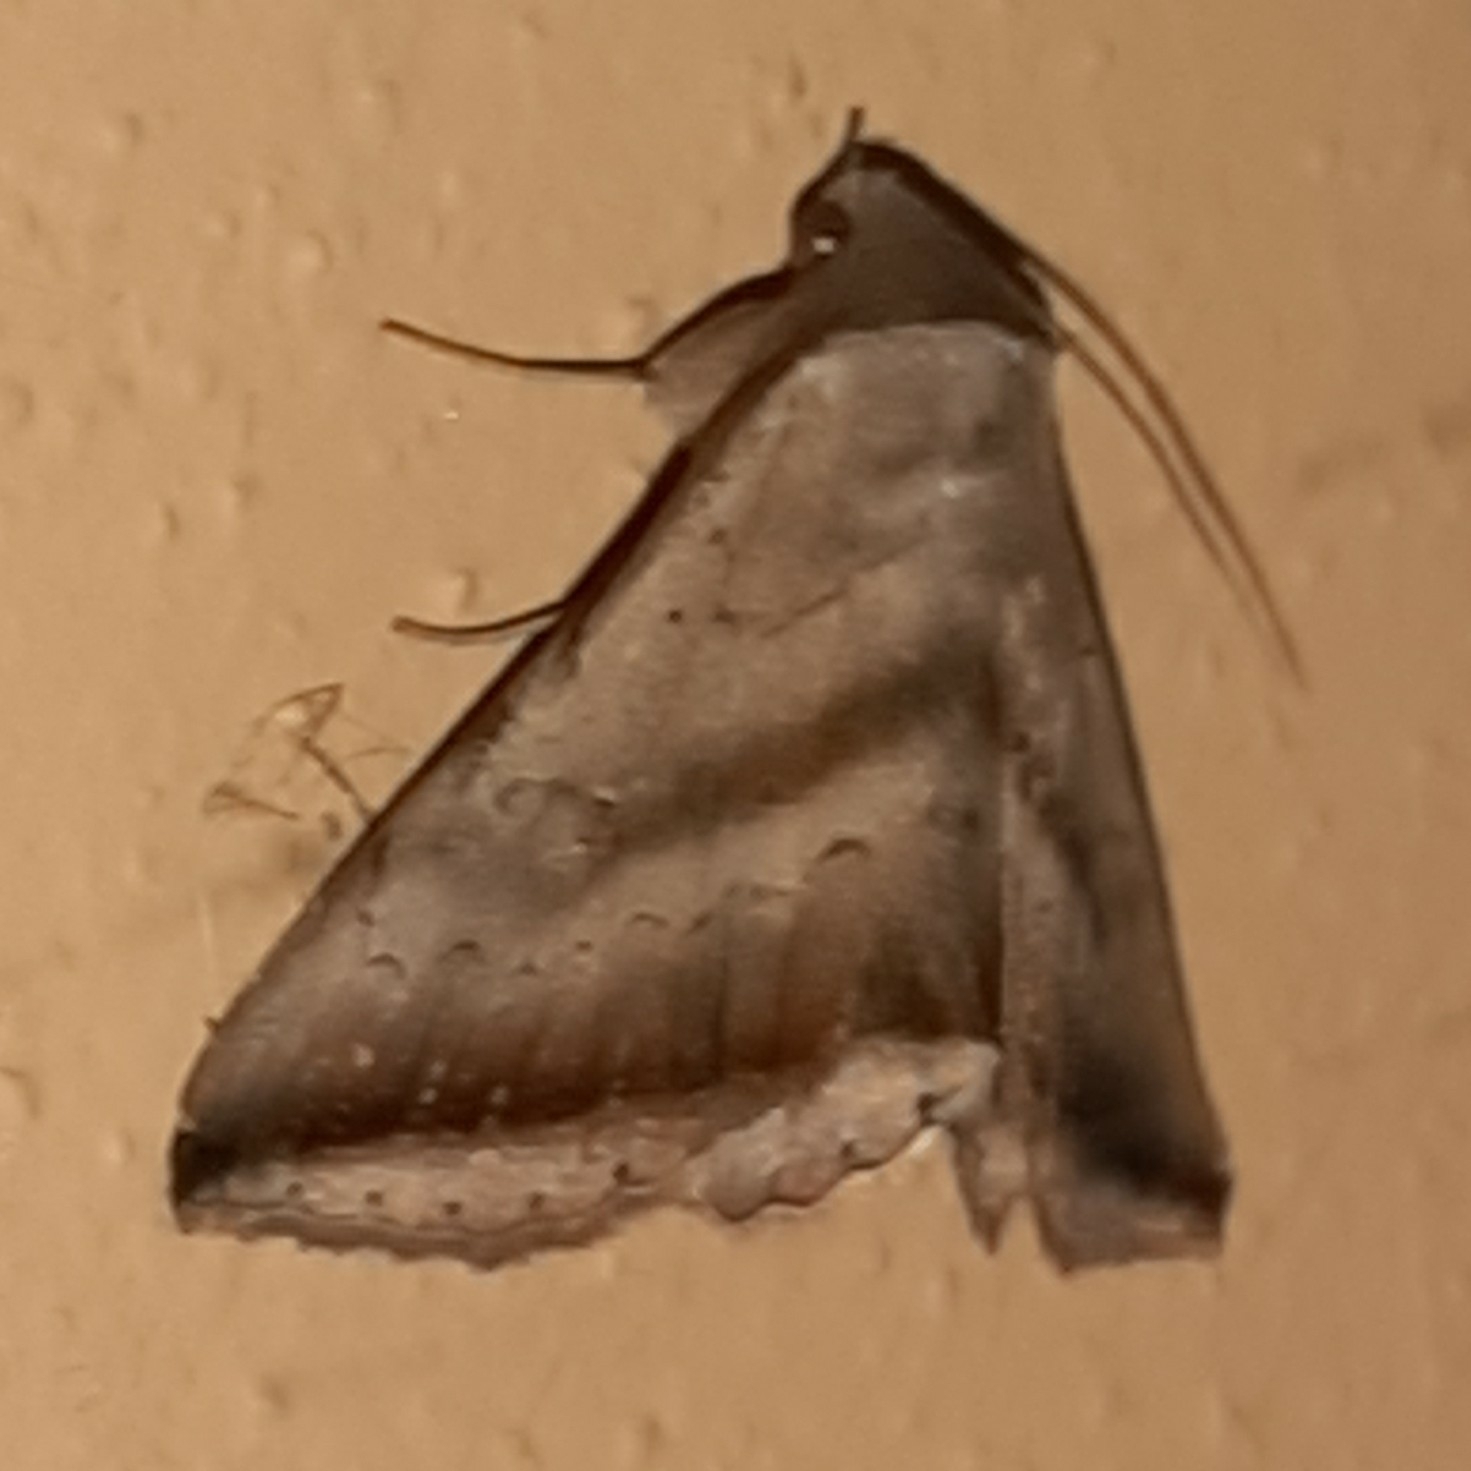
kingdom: Animalia
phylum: Arthropoda
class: Insecta
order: Lepidoptera
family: Erebidae
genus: Lesmone
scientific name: Lesmone formularis
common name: Lesmone moth
